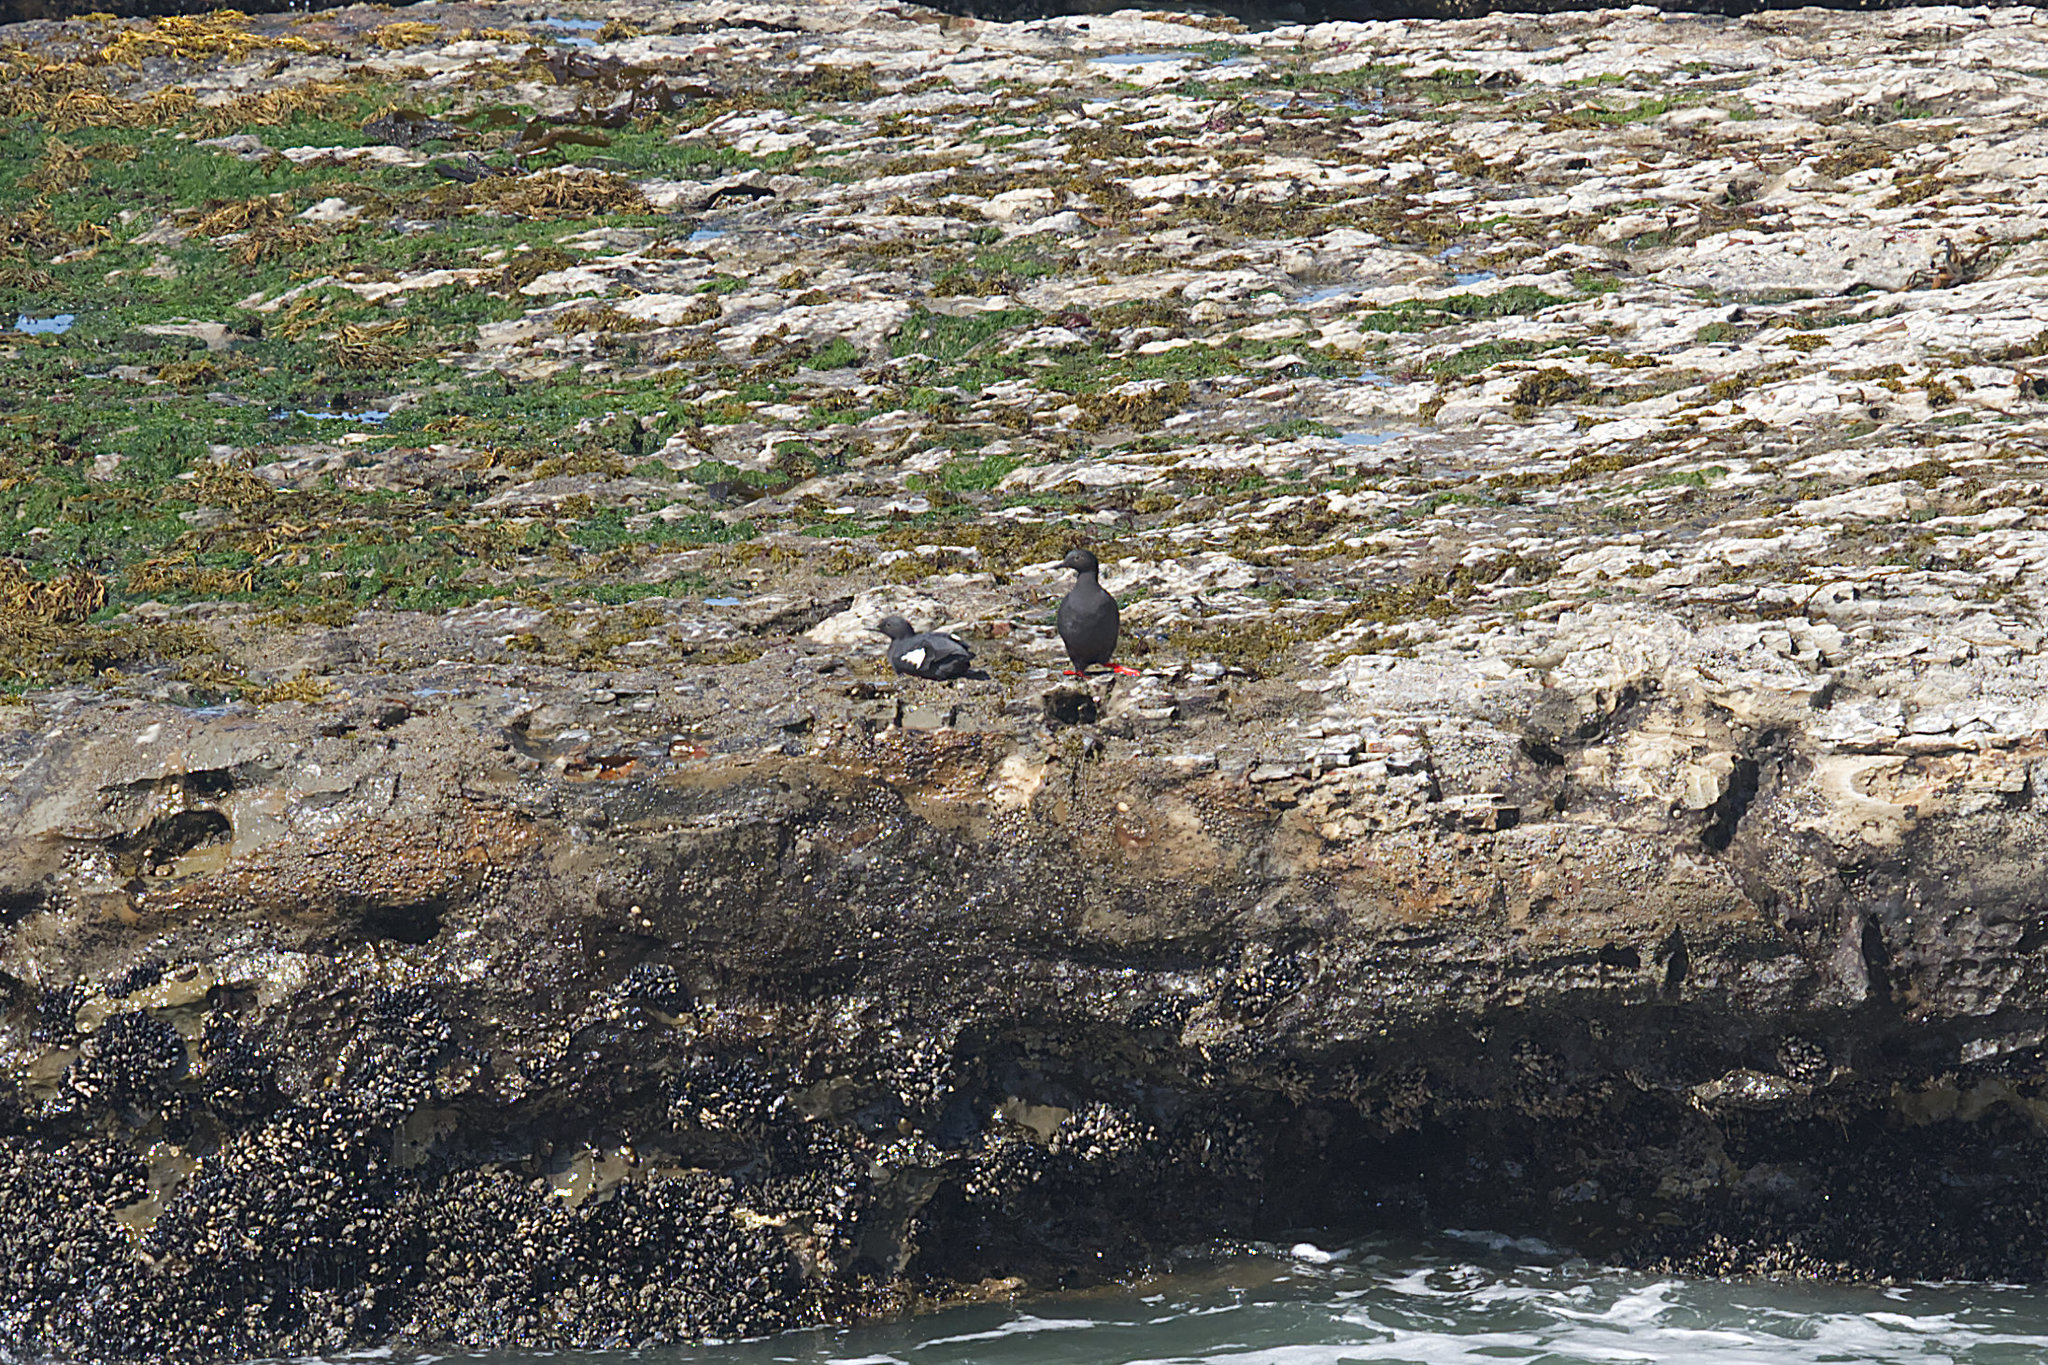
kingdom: Animalia
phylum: Chordata
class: Aves
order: Charadriiformes
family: Alcidae
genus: Cepphus
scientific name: Cepphus columba
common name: Pigeon guillemot
